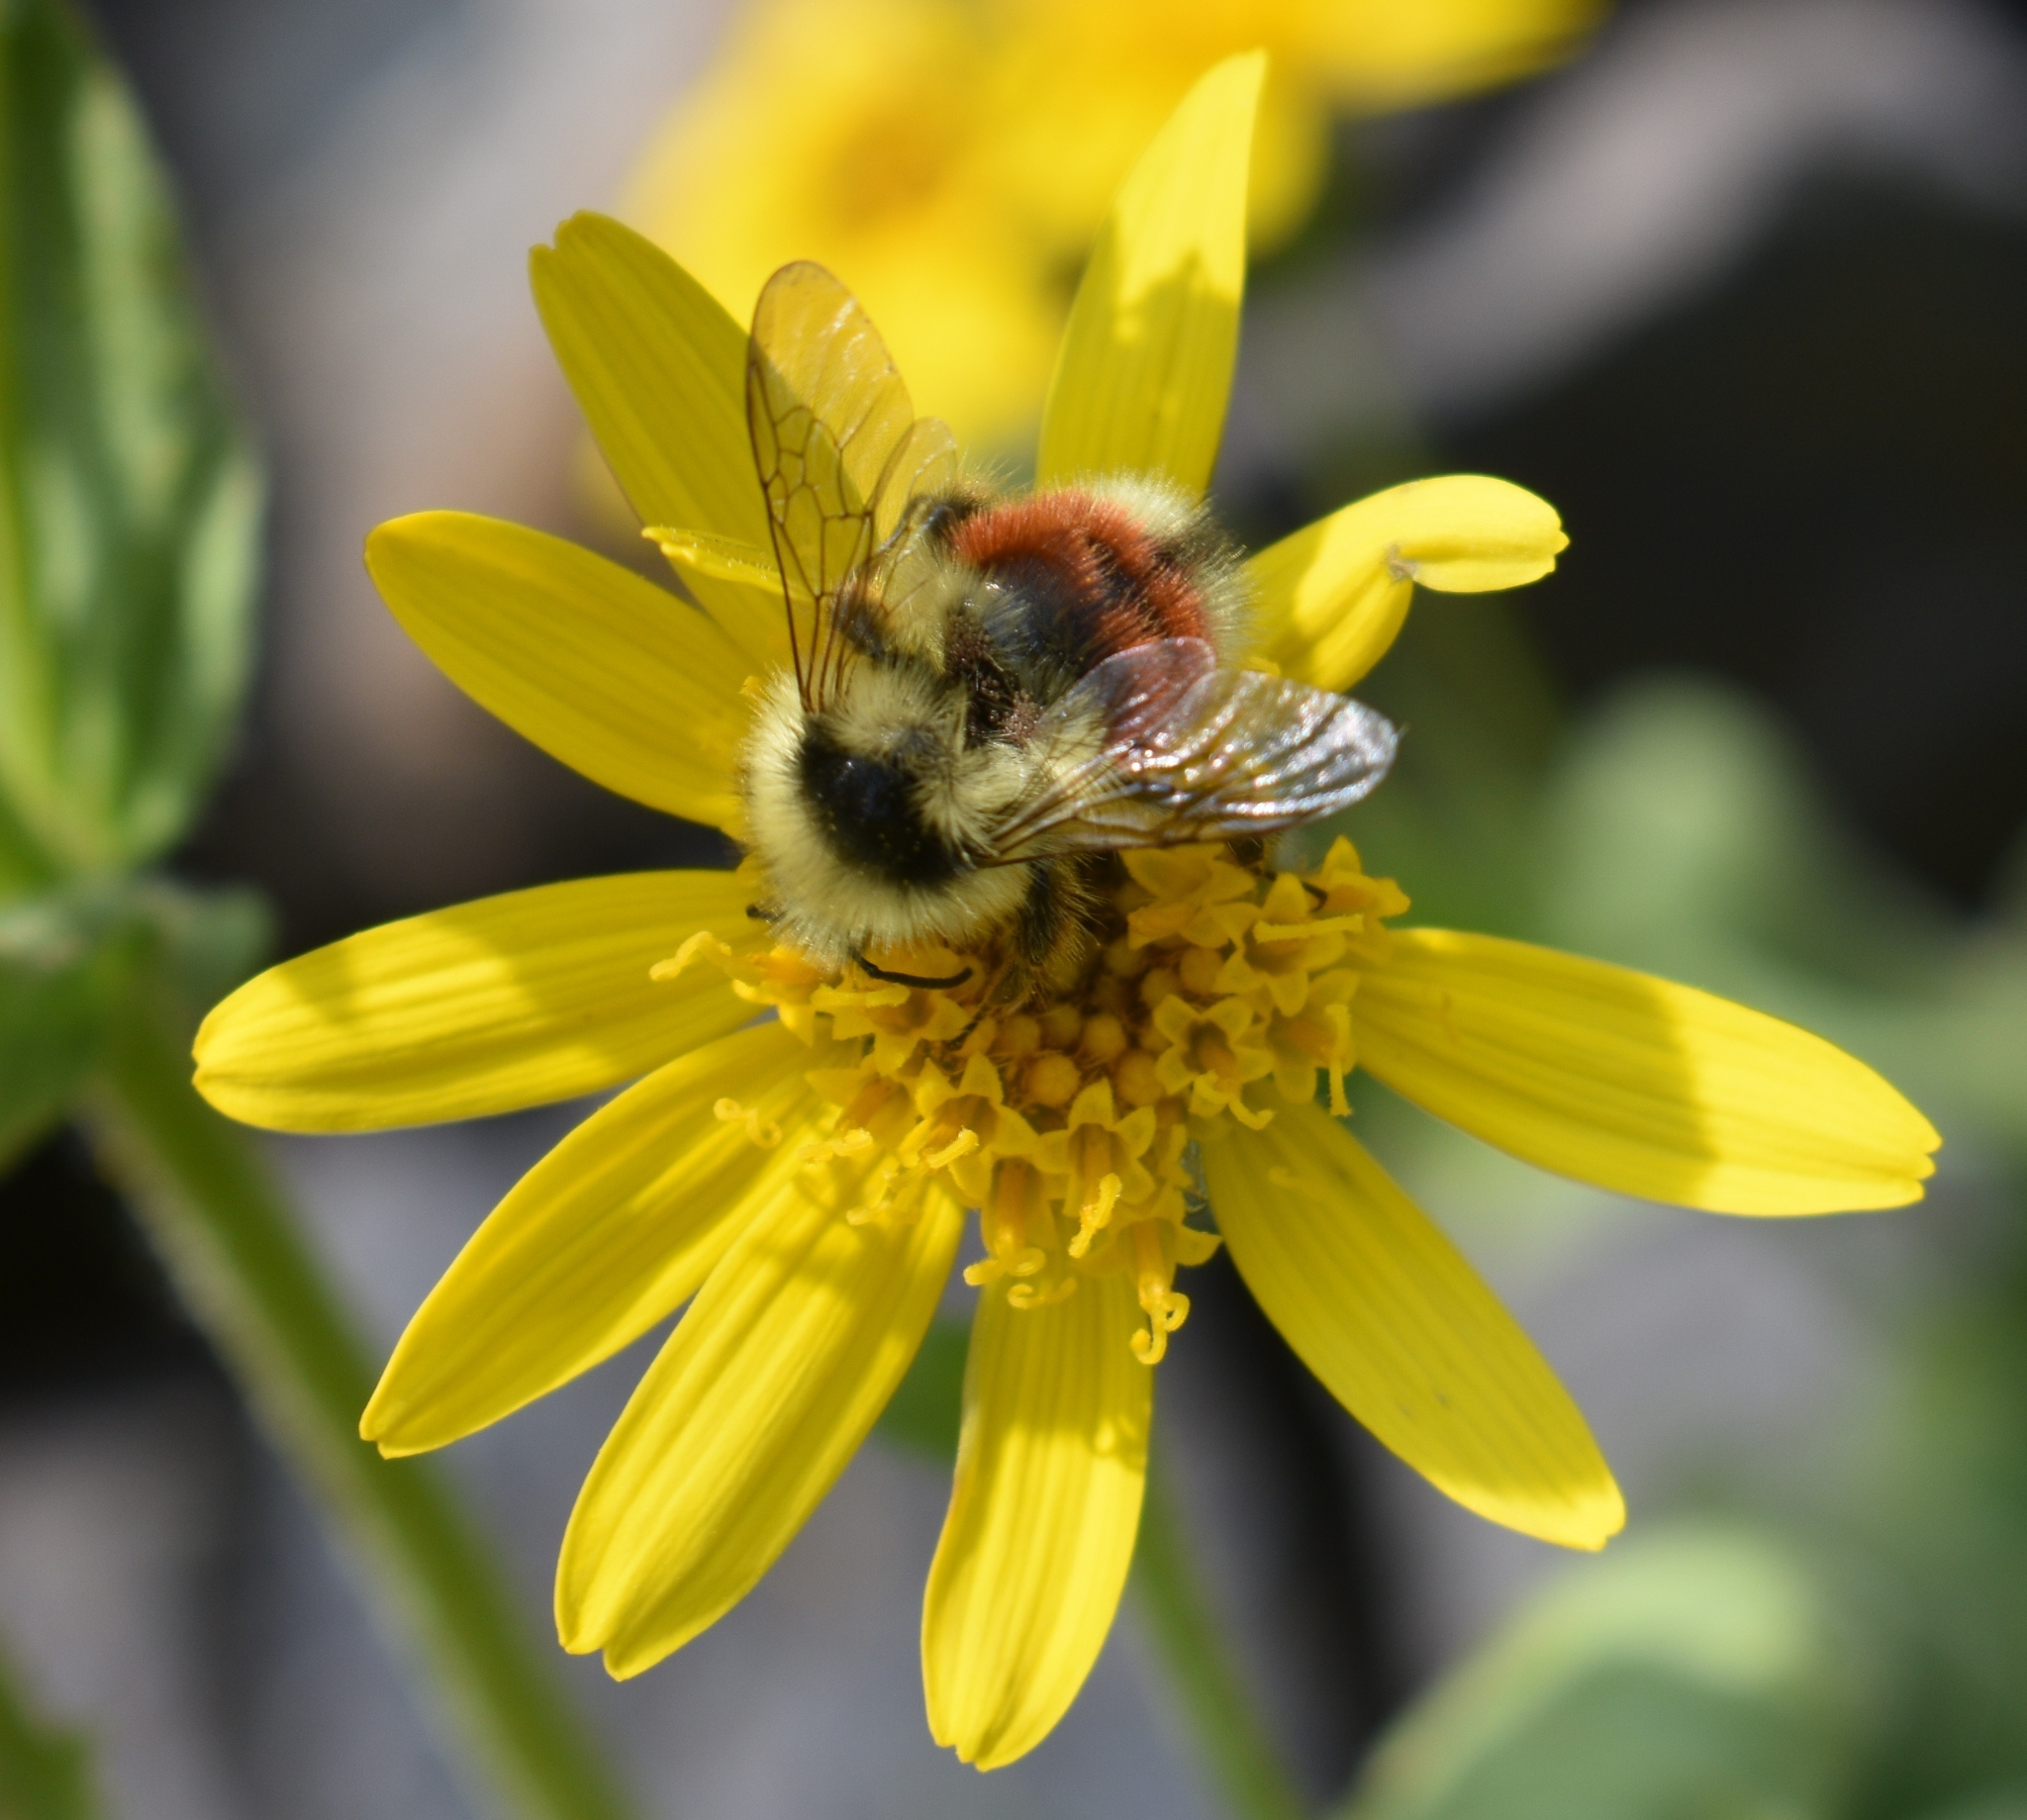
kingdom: Animalia
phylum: Arthropoda
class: Insecta
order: Hymenoptera
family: Apidae
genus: Bombus
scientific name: Bombus sylvicola
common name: Forest bumble bee
